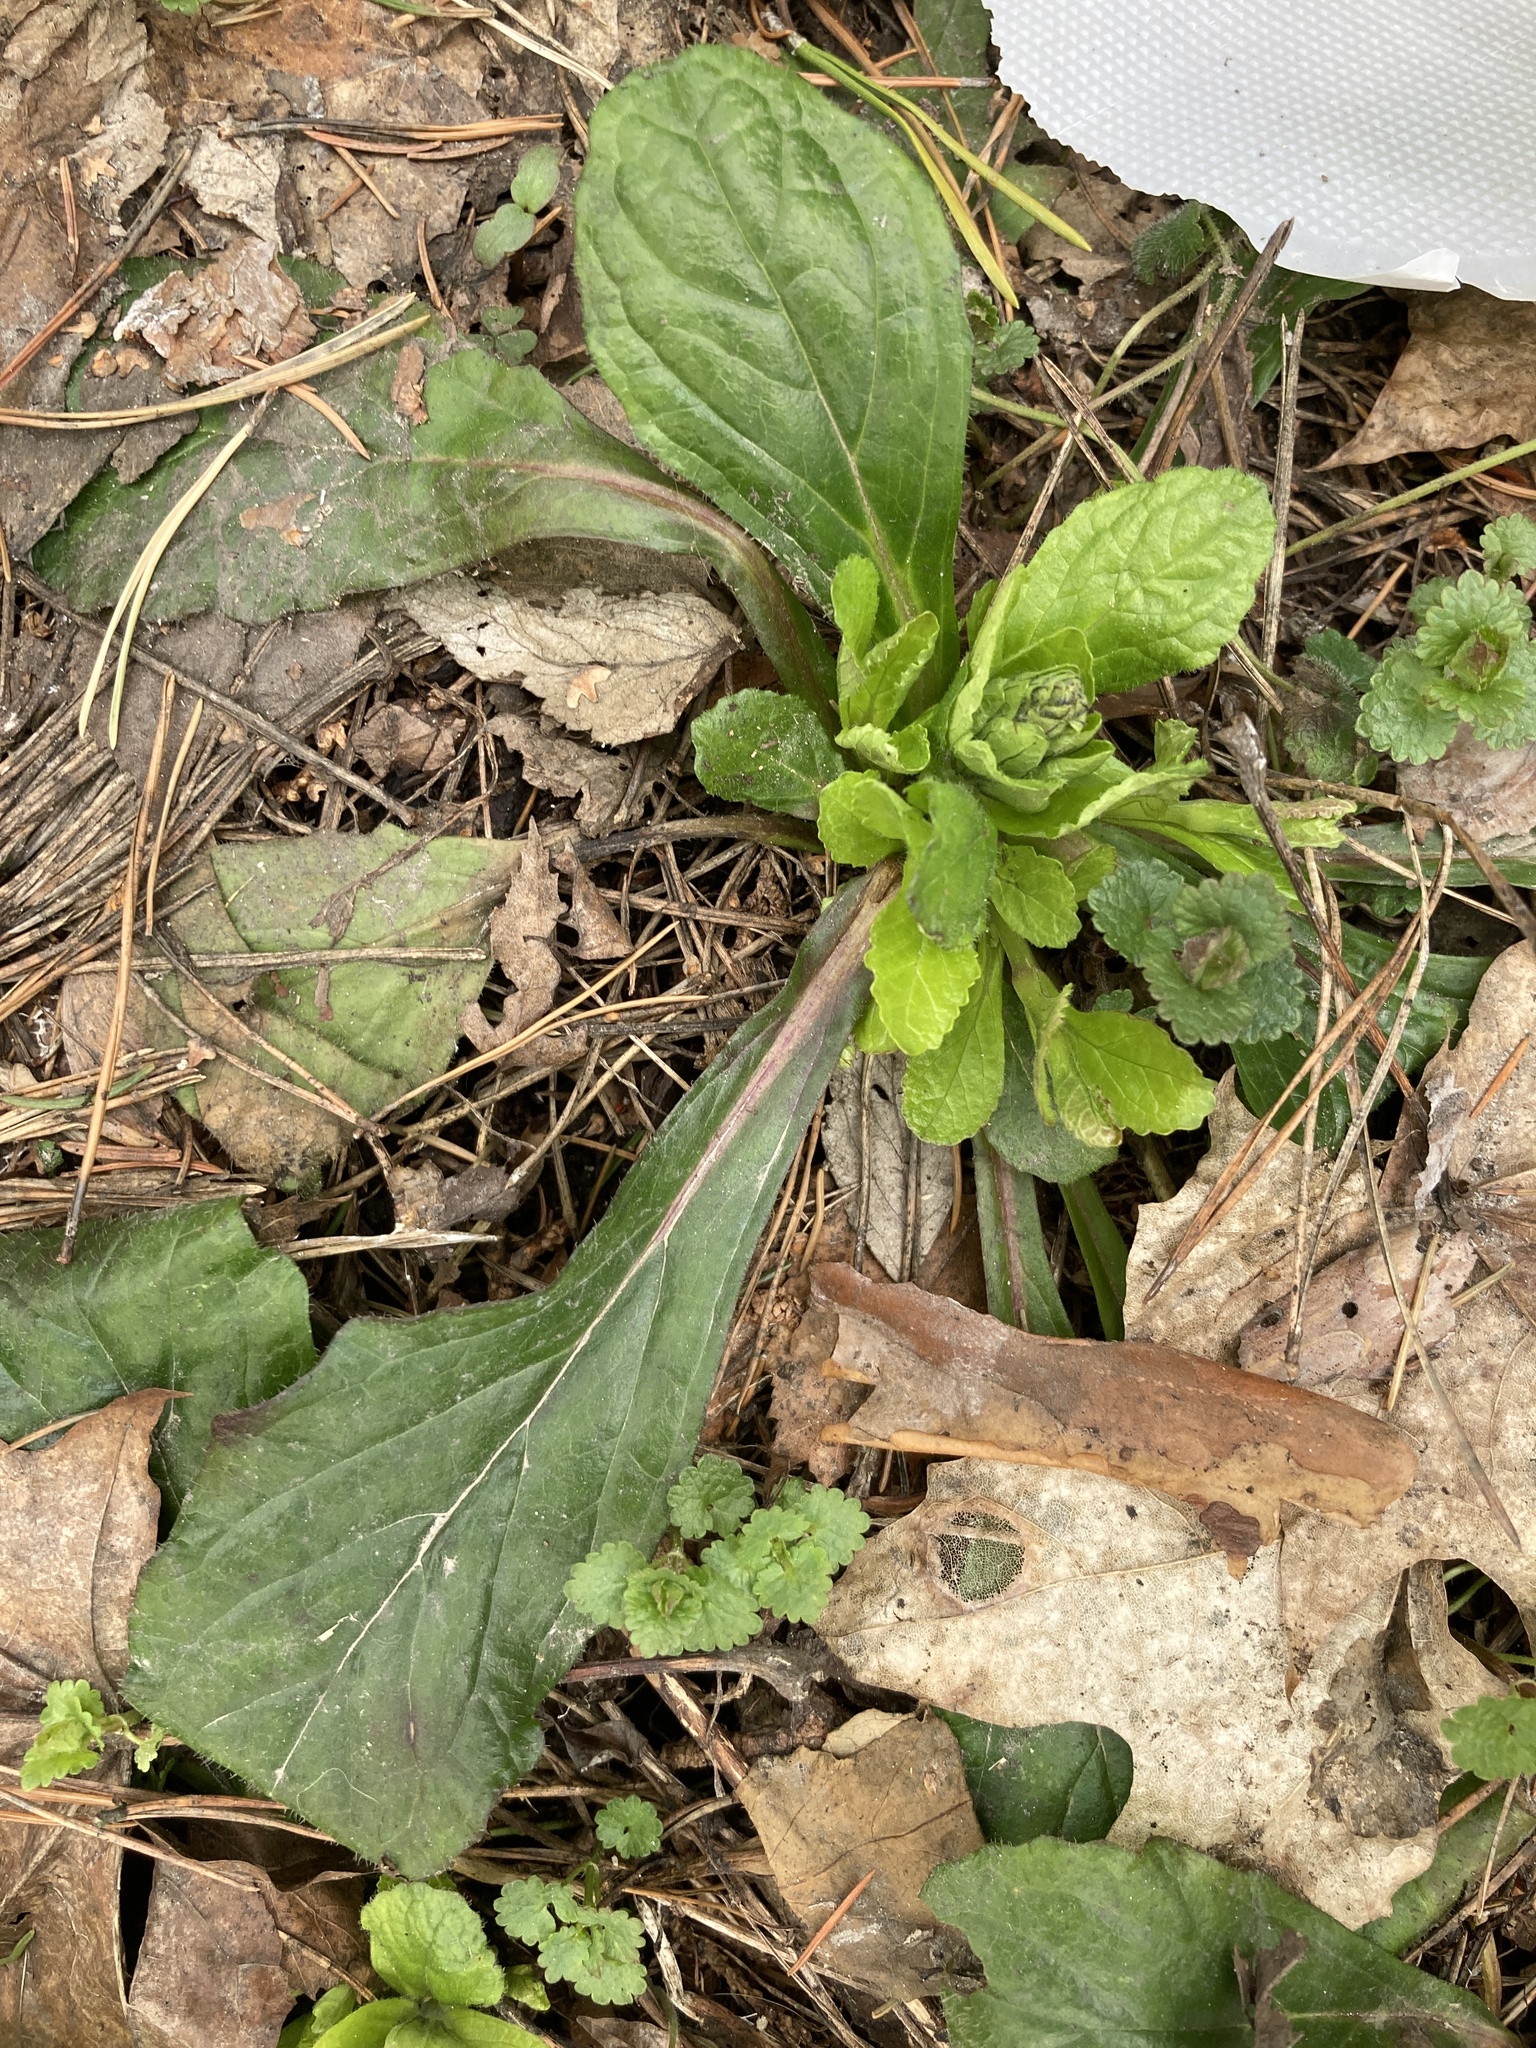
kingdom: Plantae
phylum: Tracheophyta
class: Magnoliopsida
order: Lamiales
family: Lamiaceae
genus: Ajuga
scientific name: Ajuga reptans
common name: Bugle
